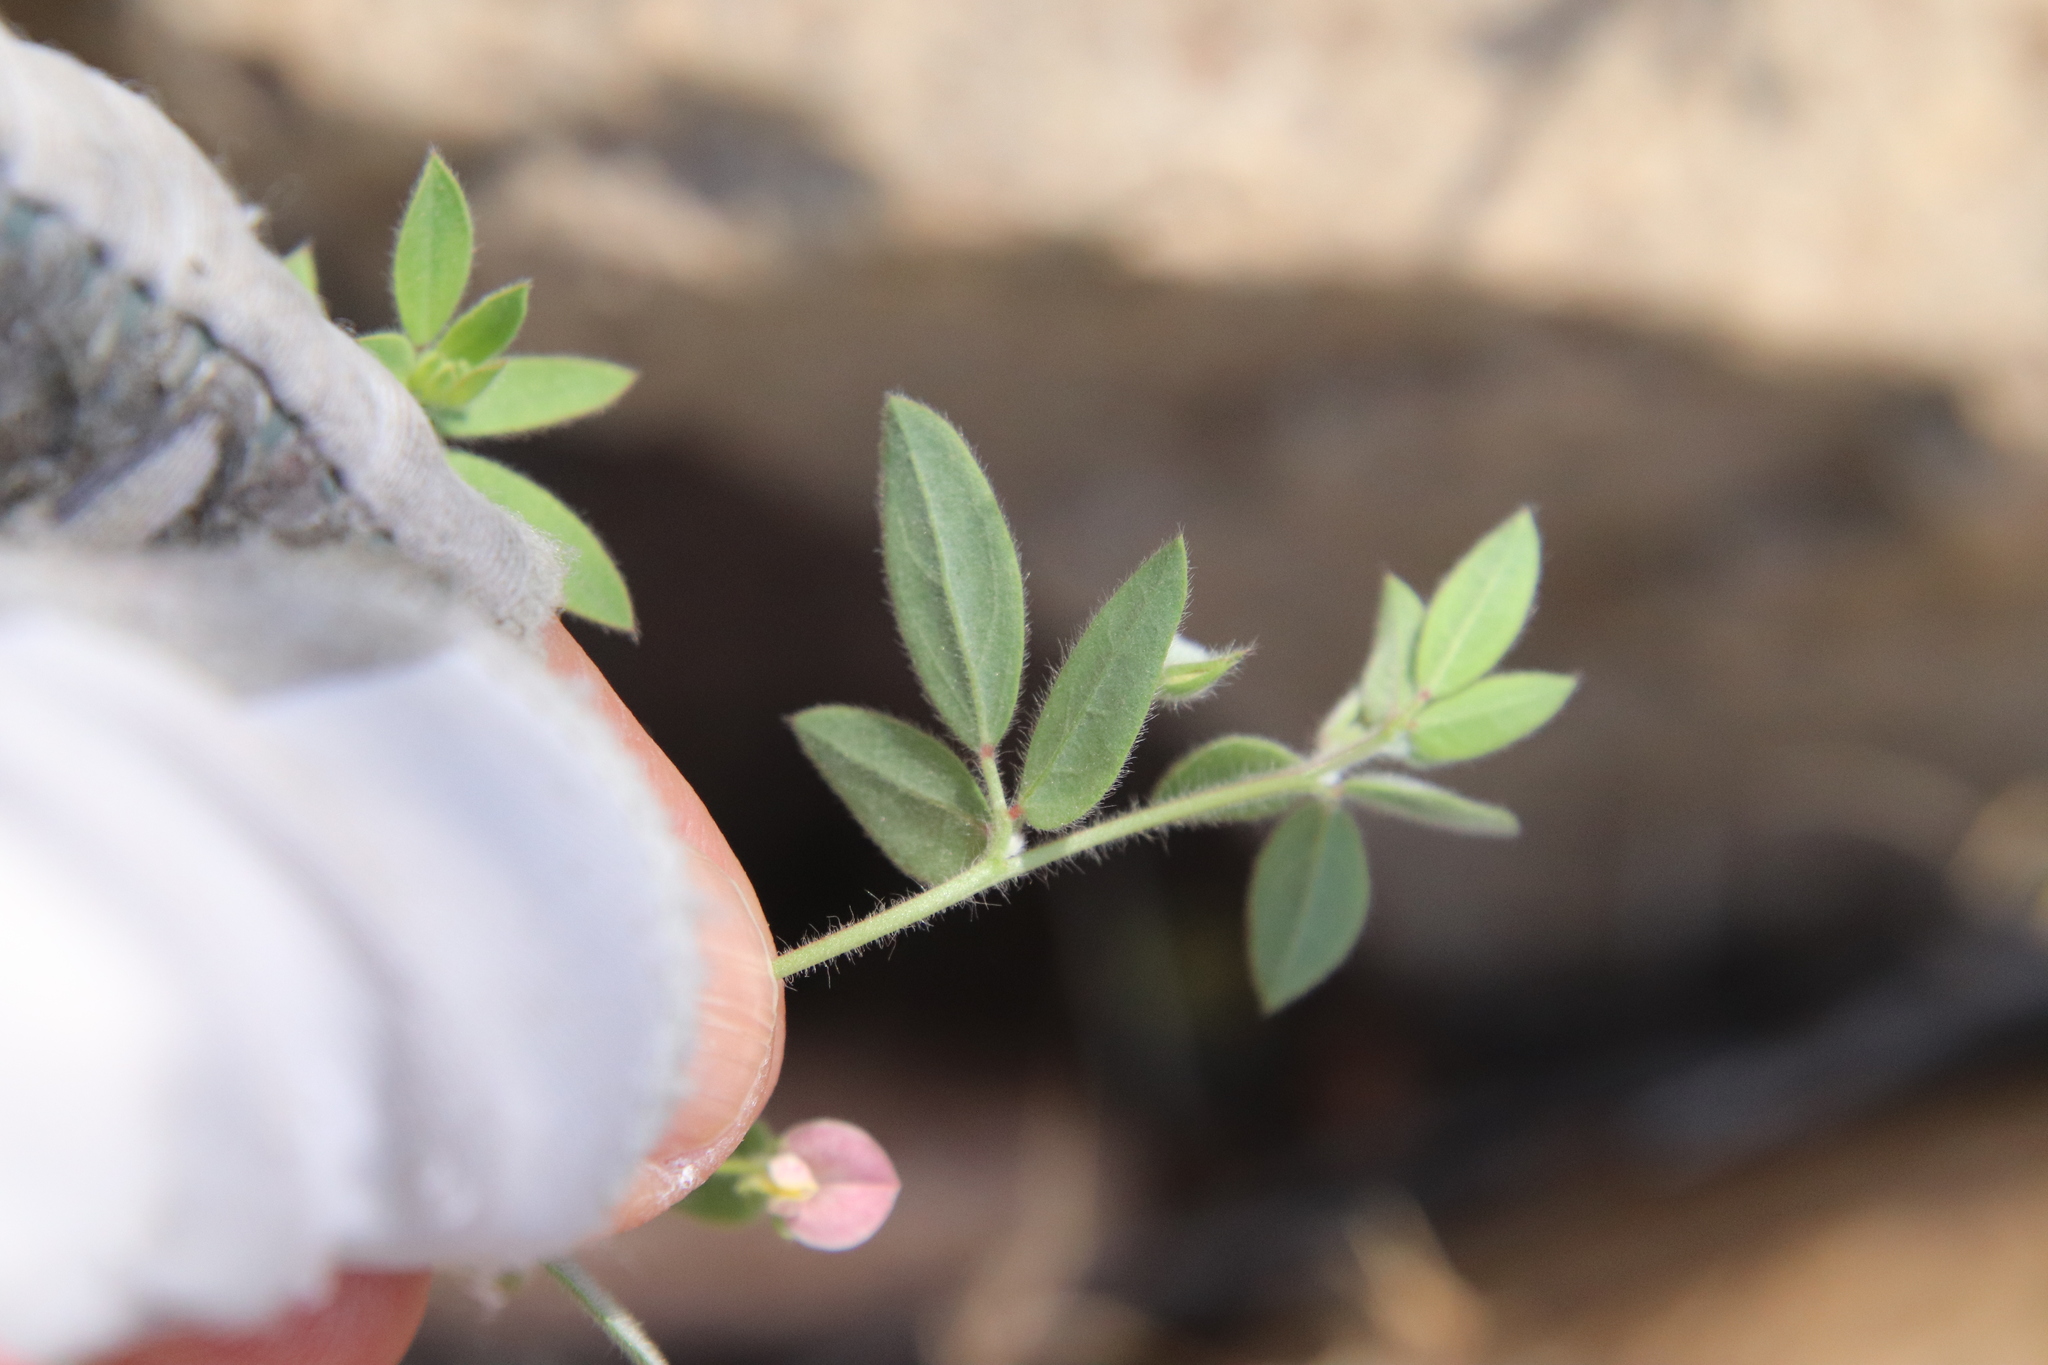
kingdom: Plantae
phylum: Tracheophyta
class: Magnoliopsida
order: Fabales
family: Fabaceae
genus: Acmispon
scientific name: Acmispon americanus
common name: American bird's-foot trefoil
